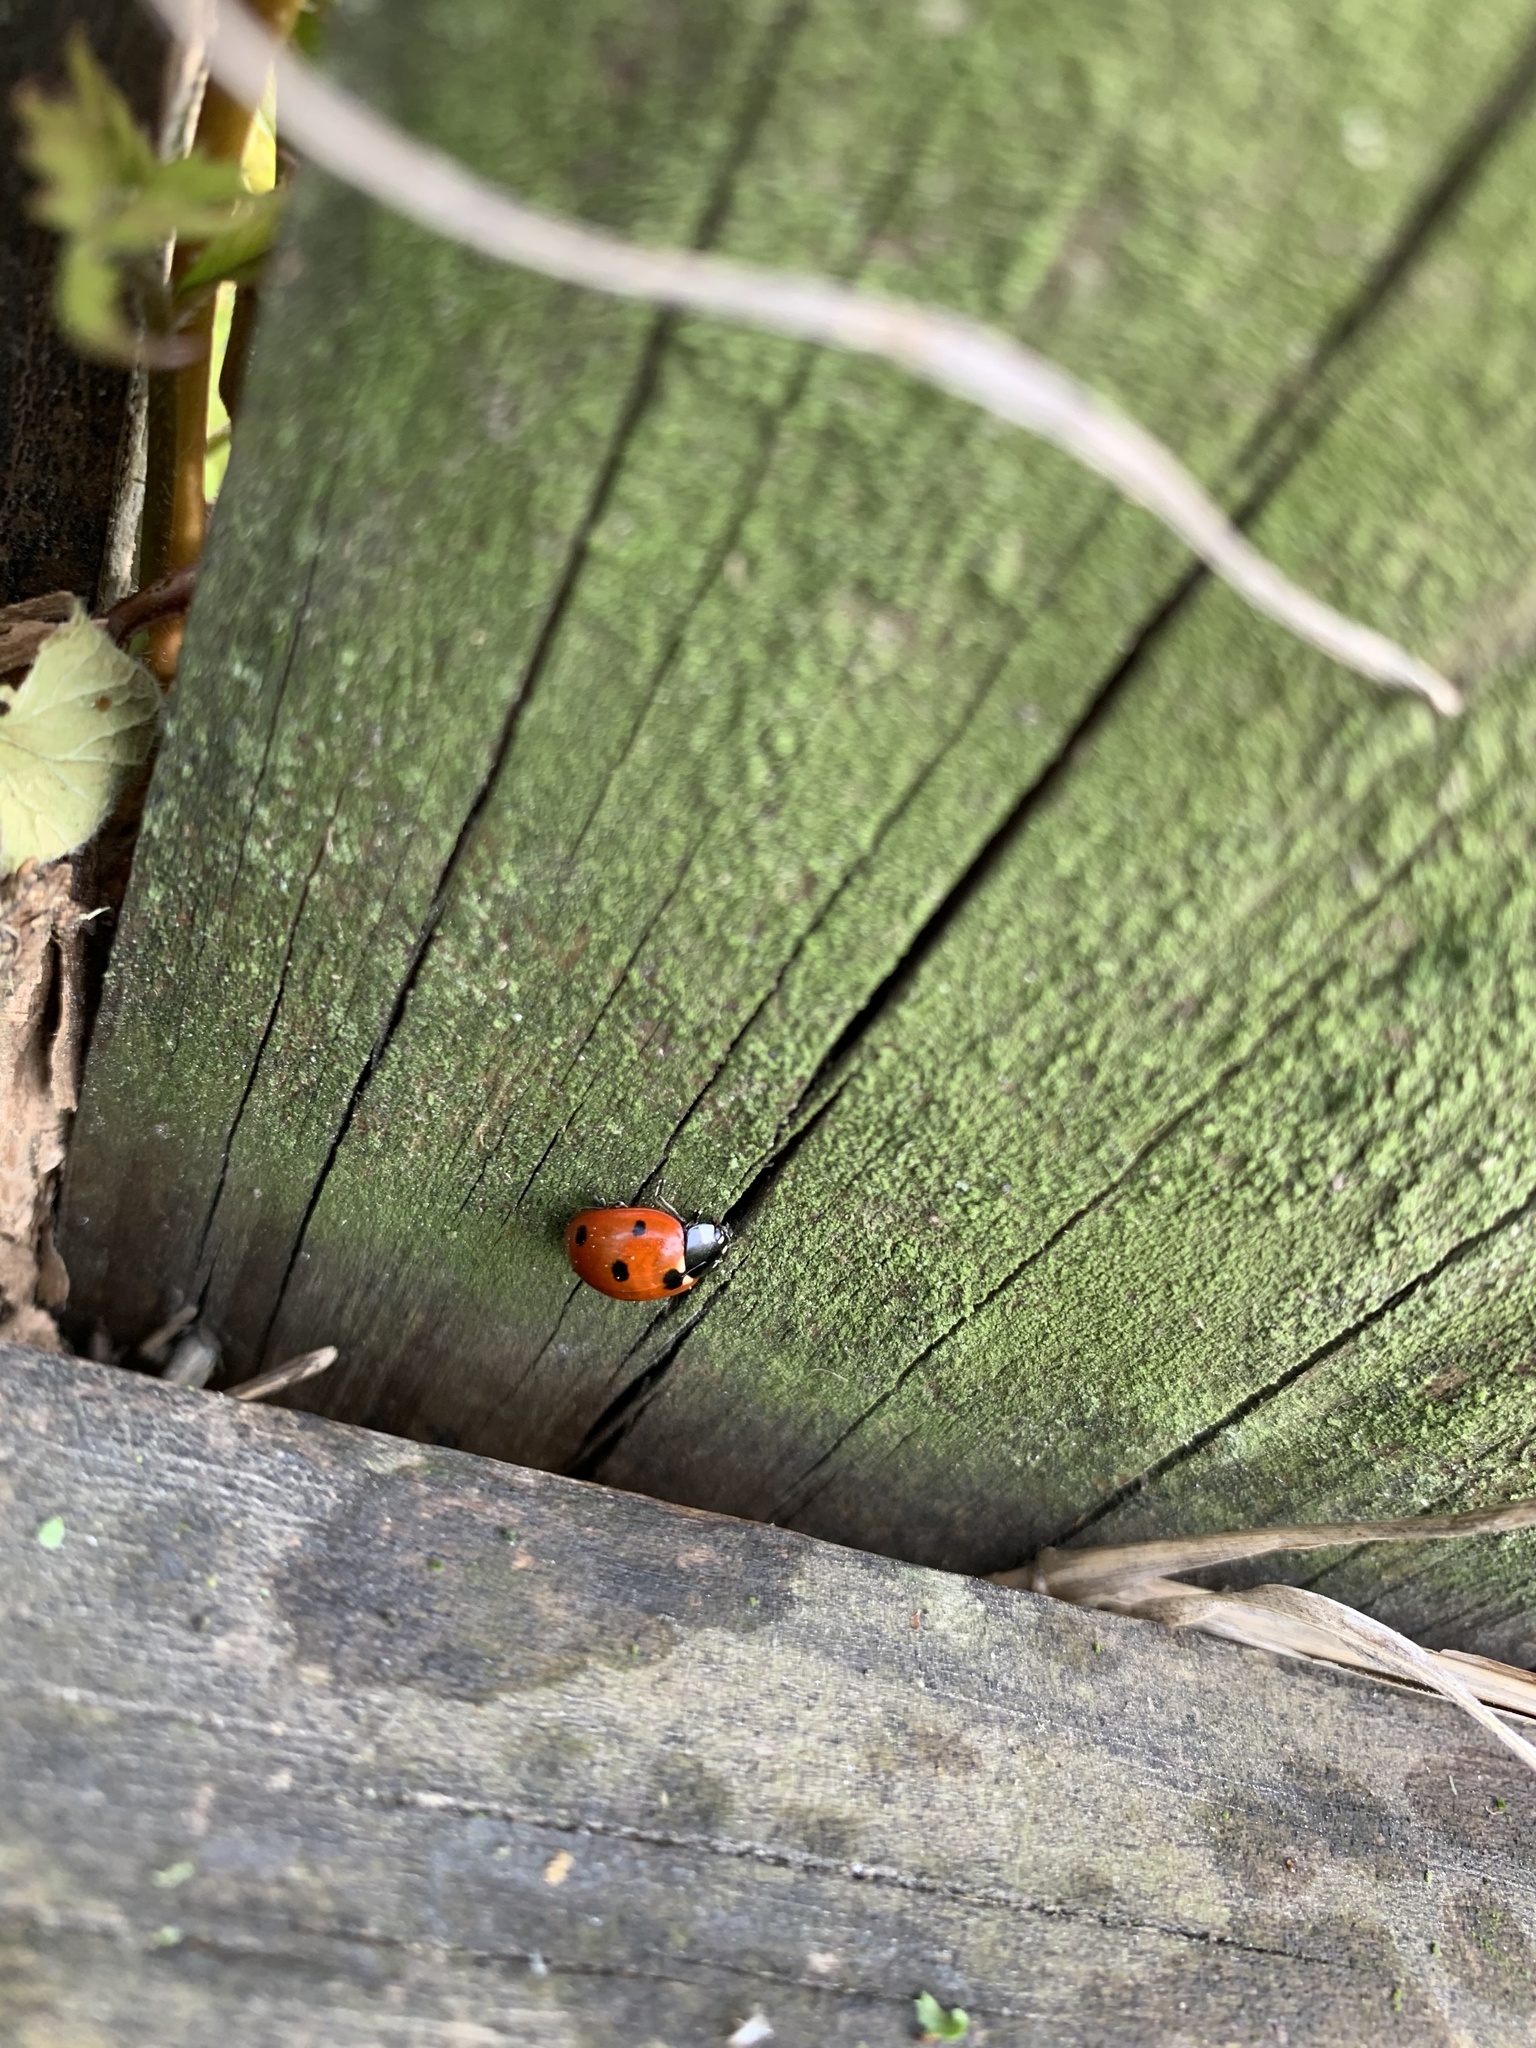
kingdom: Animalia
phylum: Arthropoda
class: Insecta
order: Coleoptera
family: Coccinellidae
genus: Coccinella
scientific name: Coccinella septempunctata
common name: Sevenspotted lady beetle
